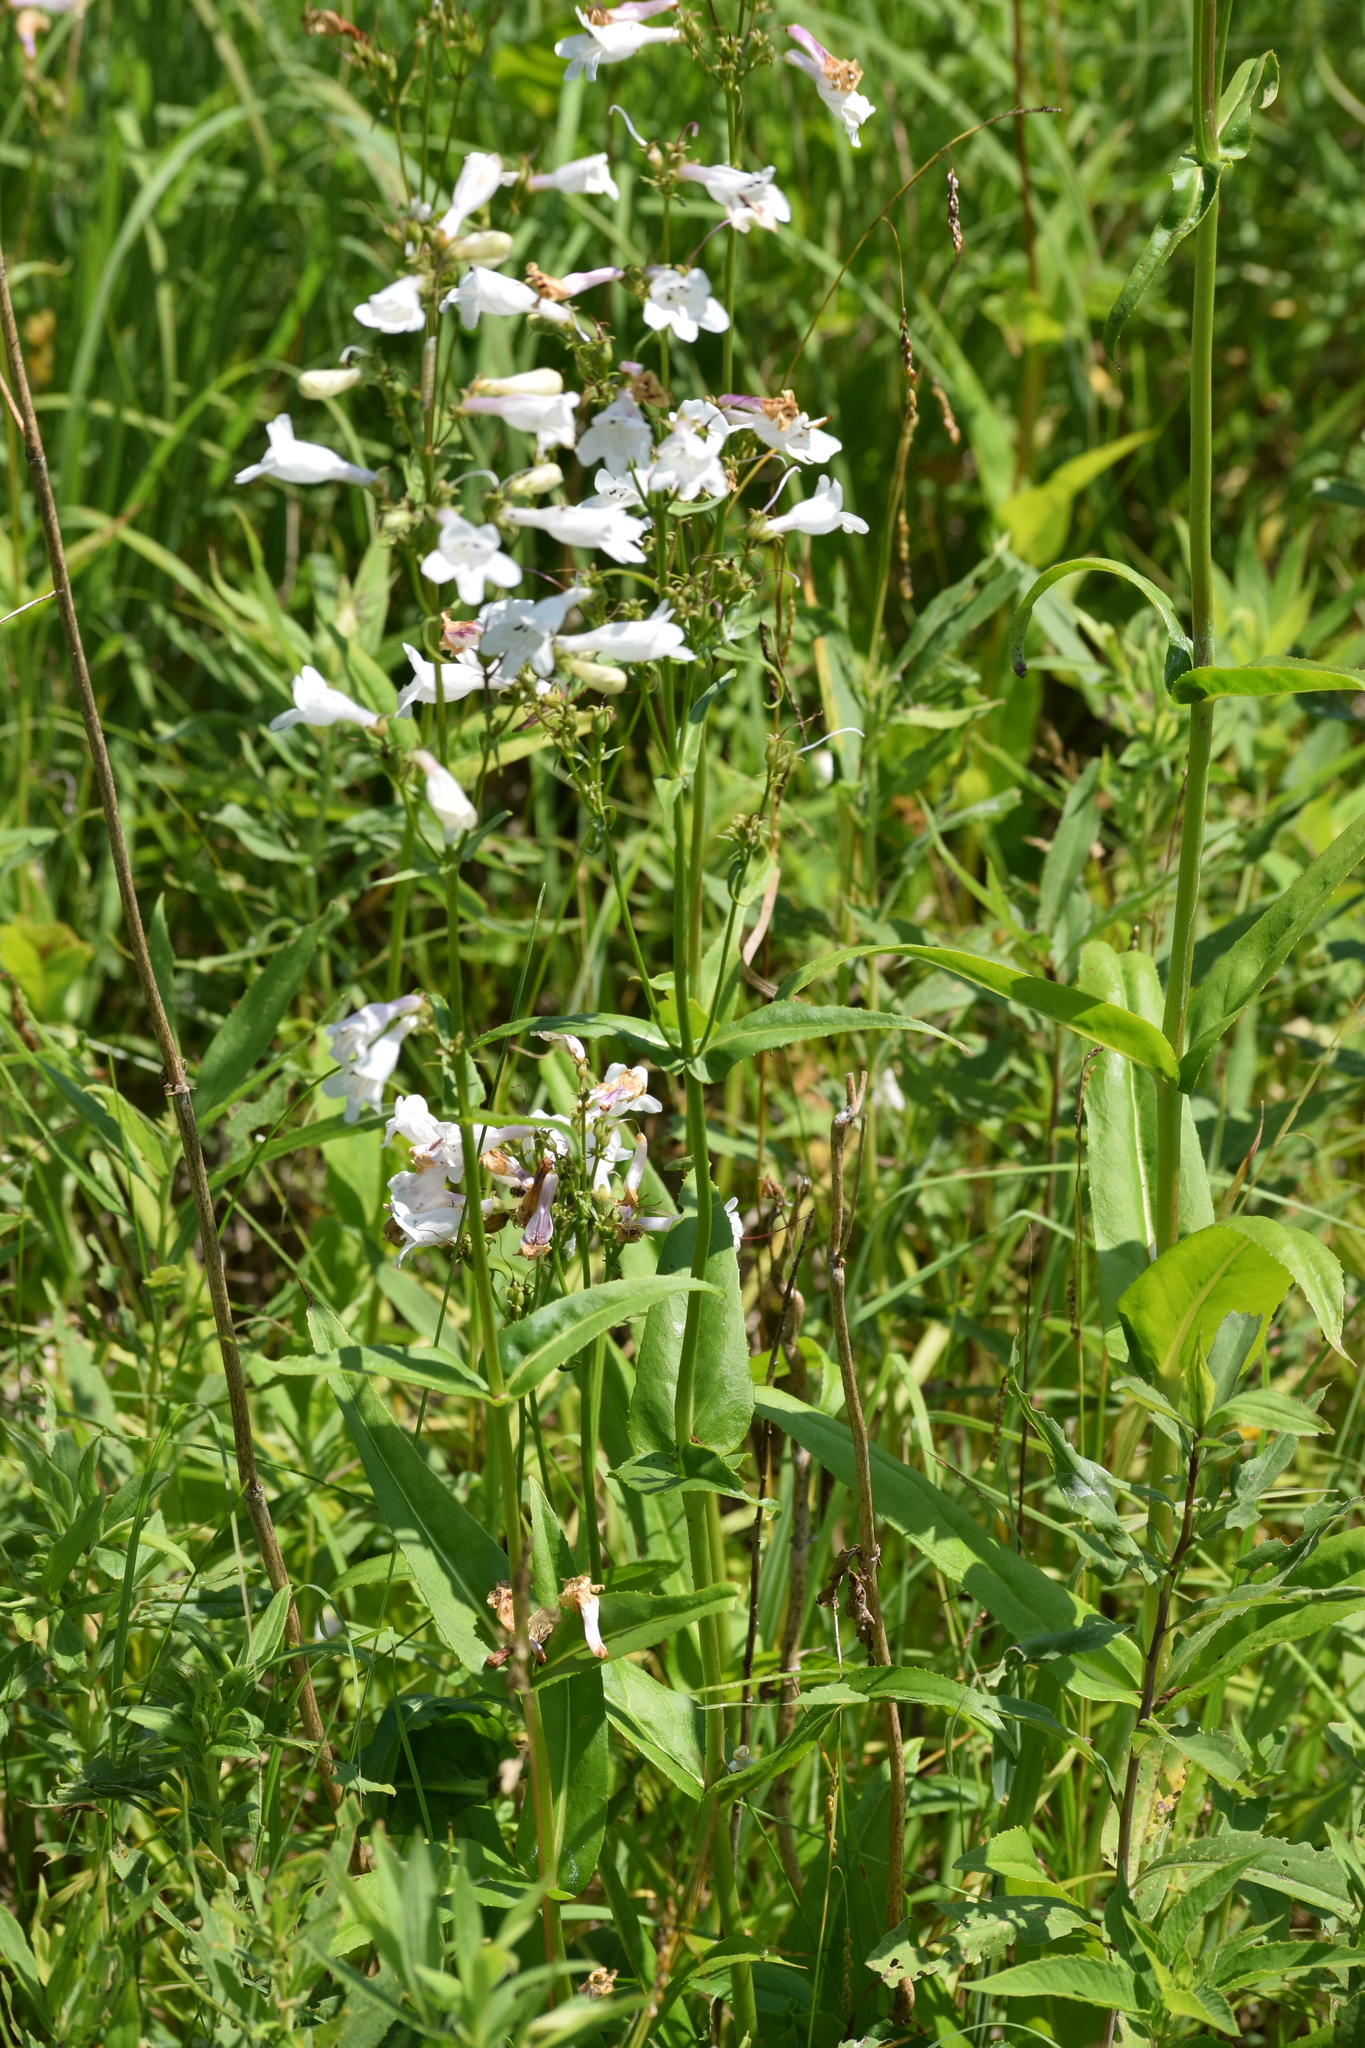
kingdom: Plantae
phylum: Tracheophyta
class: Magnoliopsida
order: Lamiales
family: Plantaginaceae
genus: Penstemon
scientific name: Penstemon digitalis
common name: Foxglove beardtongue
